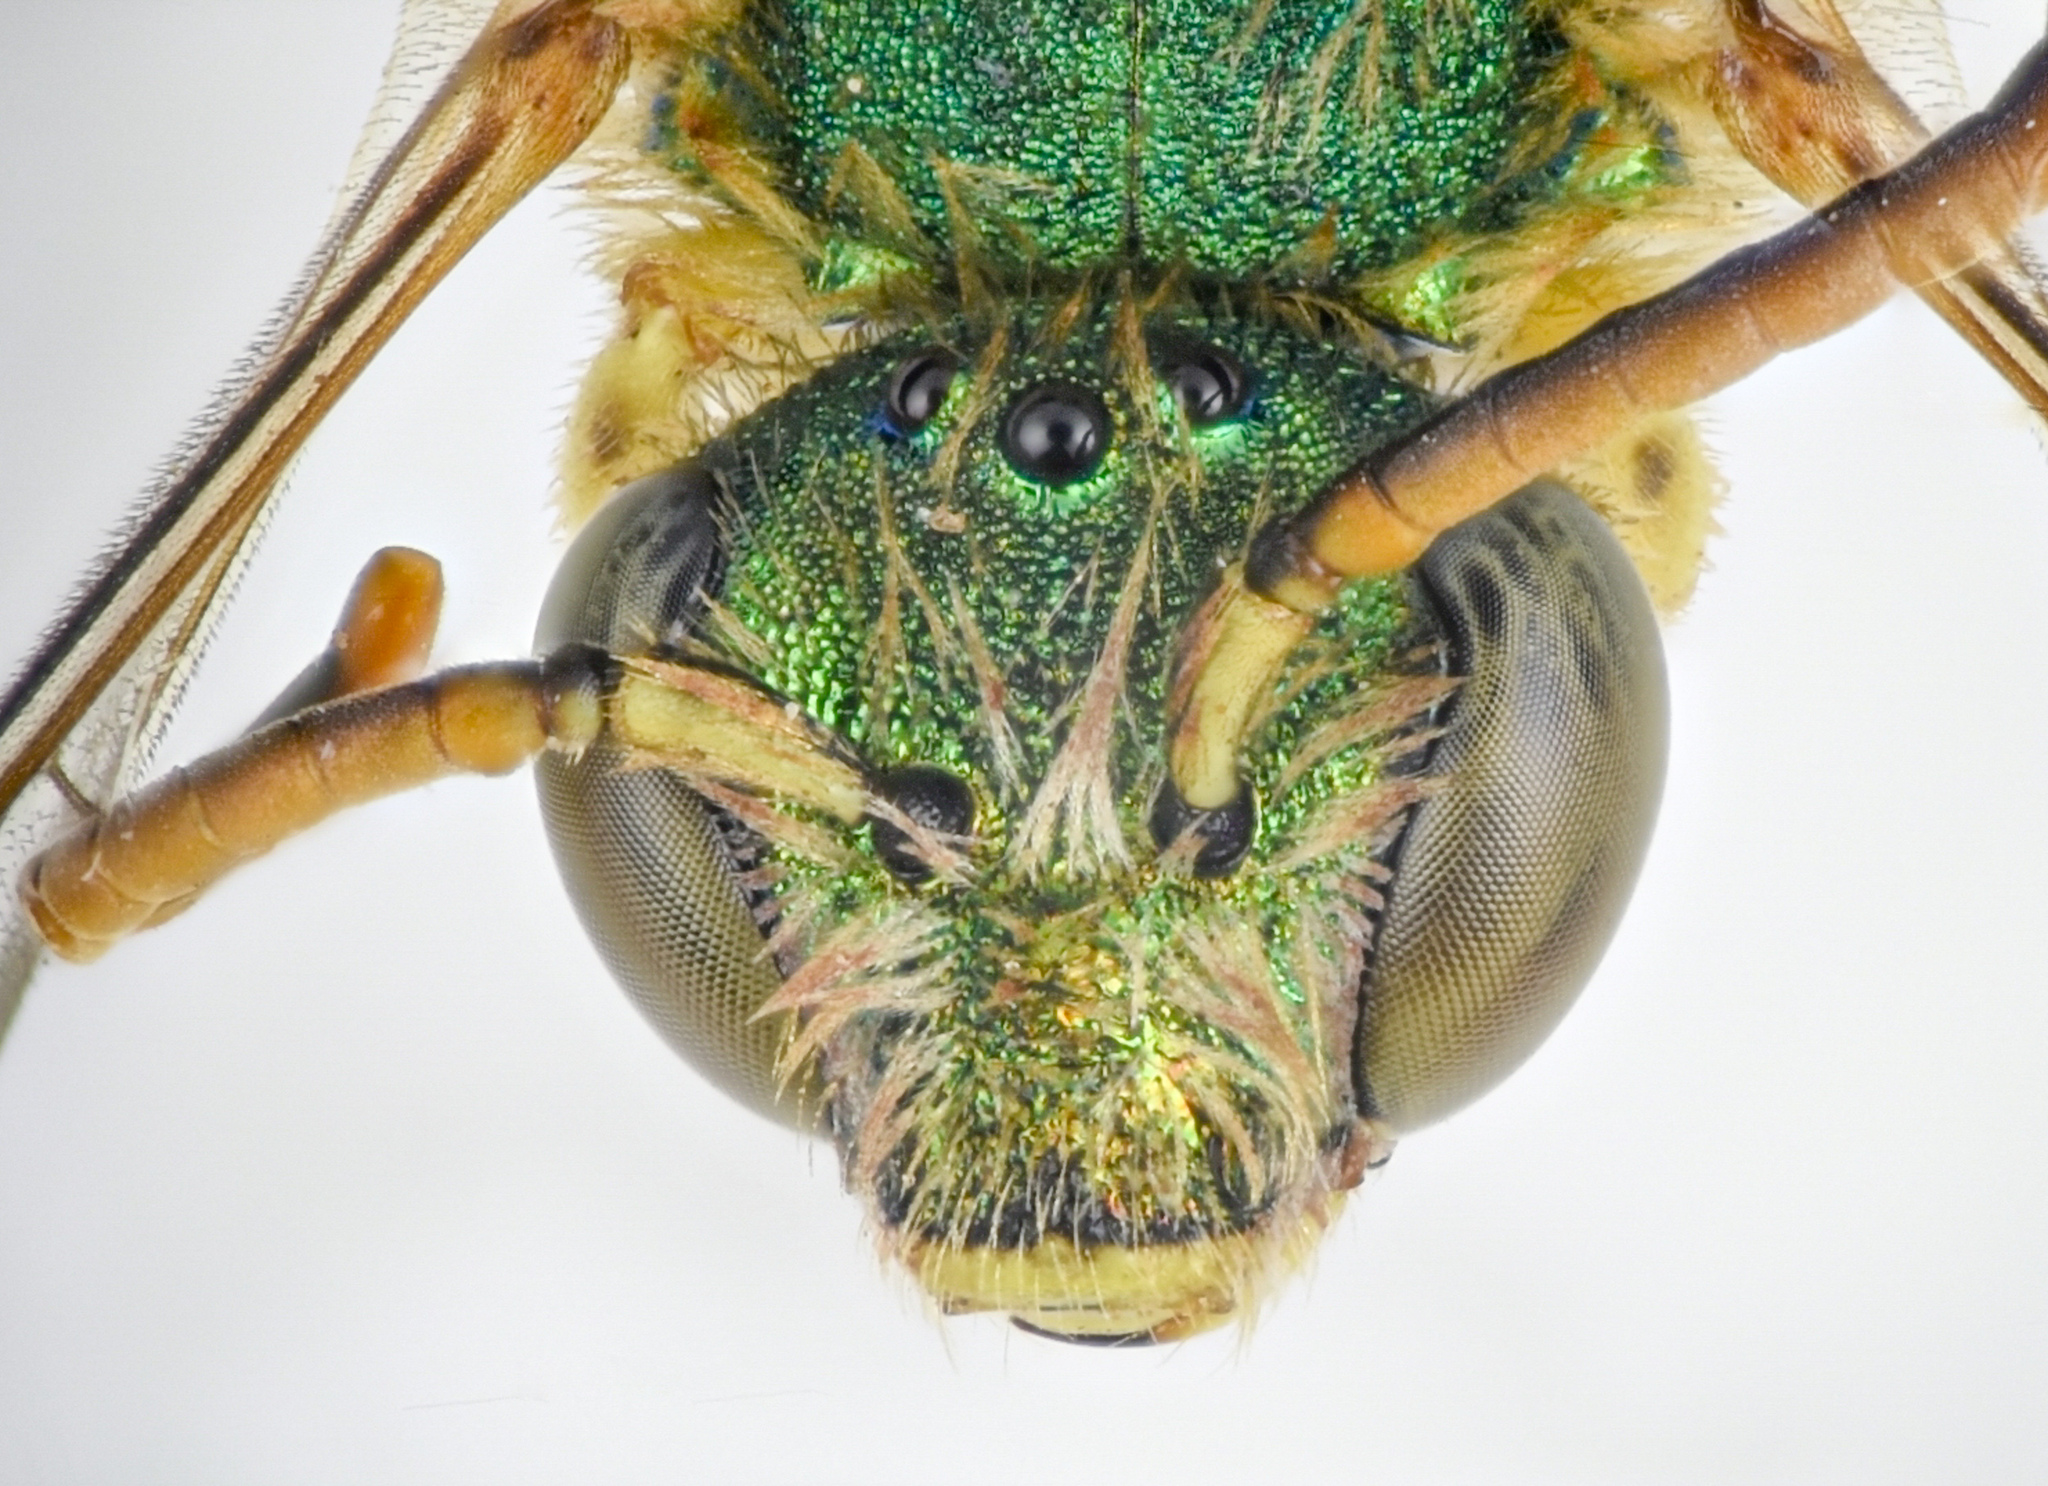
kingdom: Animalia
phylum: Arthropoda
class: Insecta
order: Hymenoptera
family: Halictidae
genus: Agapostemon
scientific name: Agapostemon texanus
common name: Texas striped sweat bee
